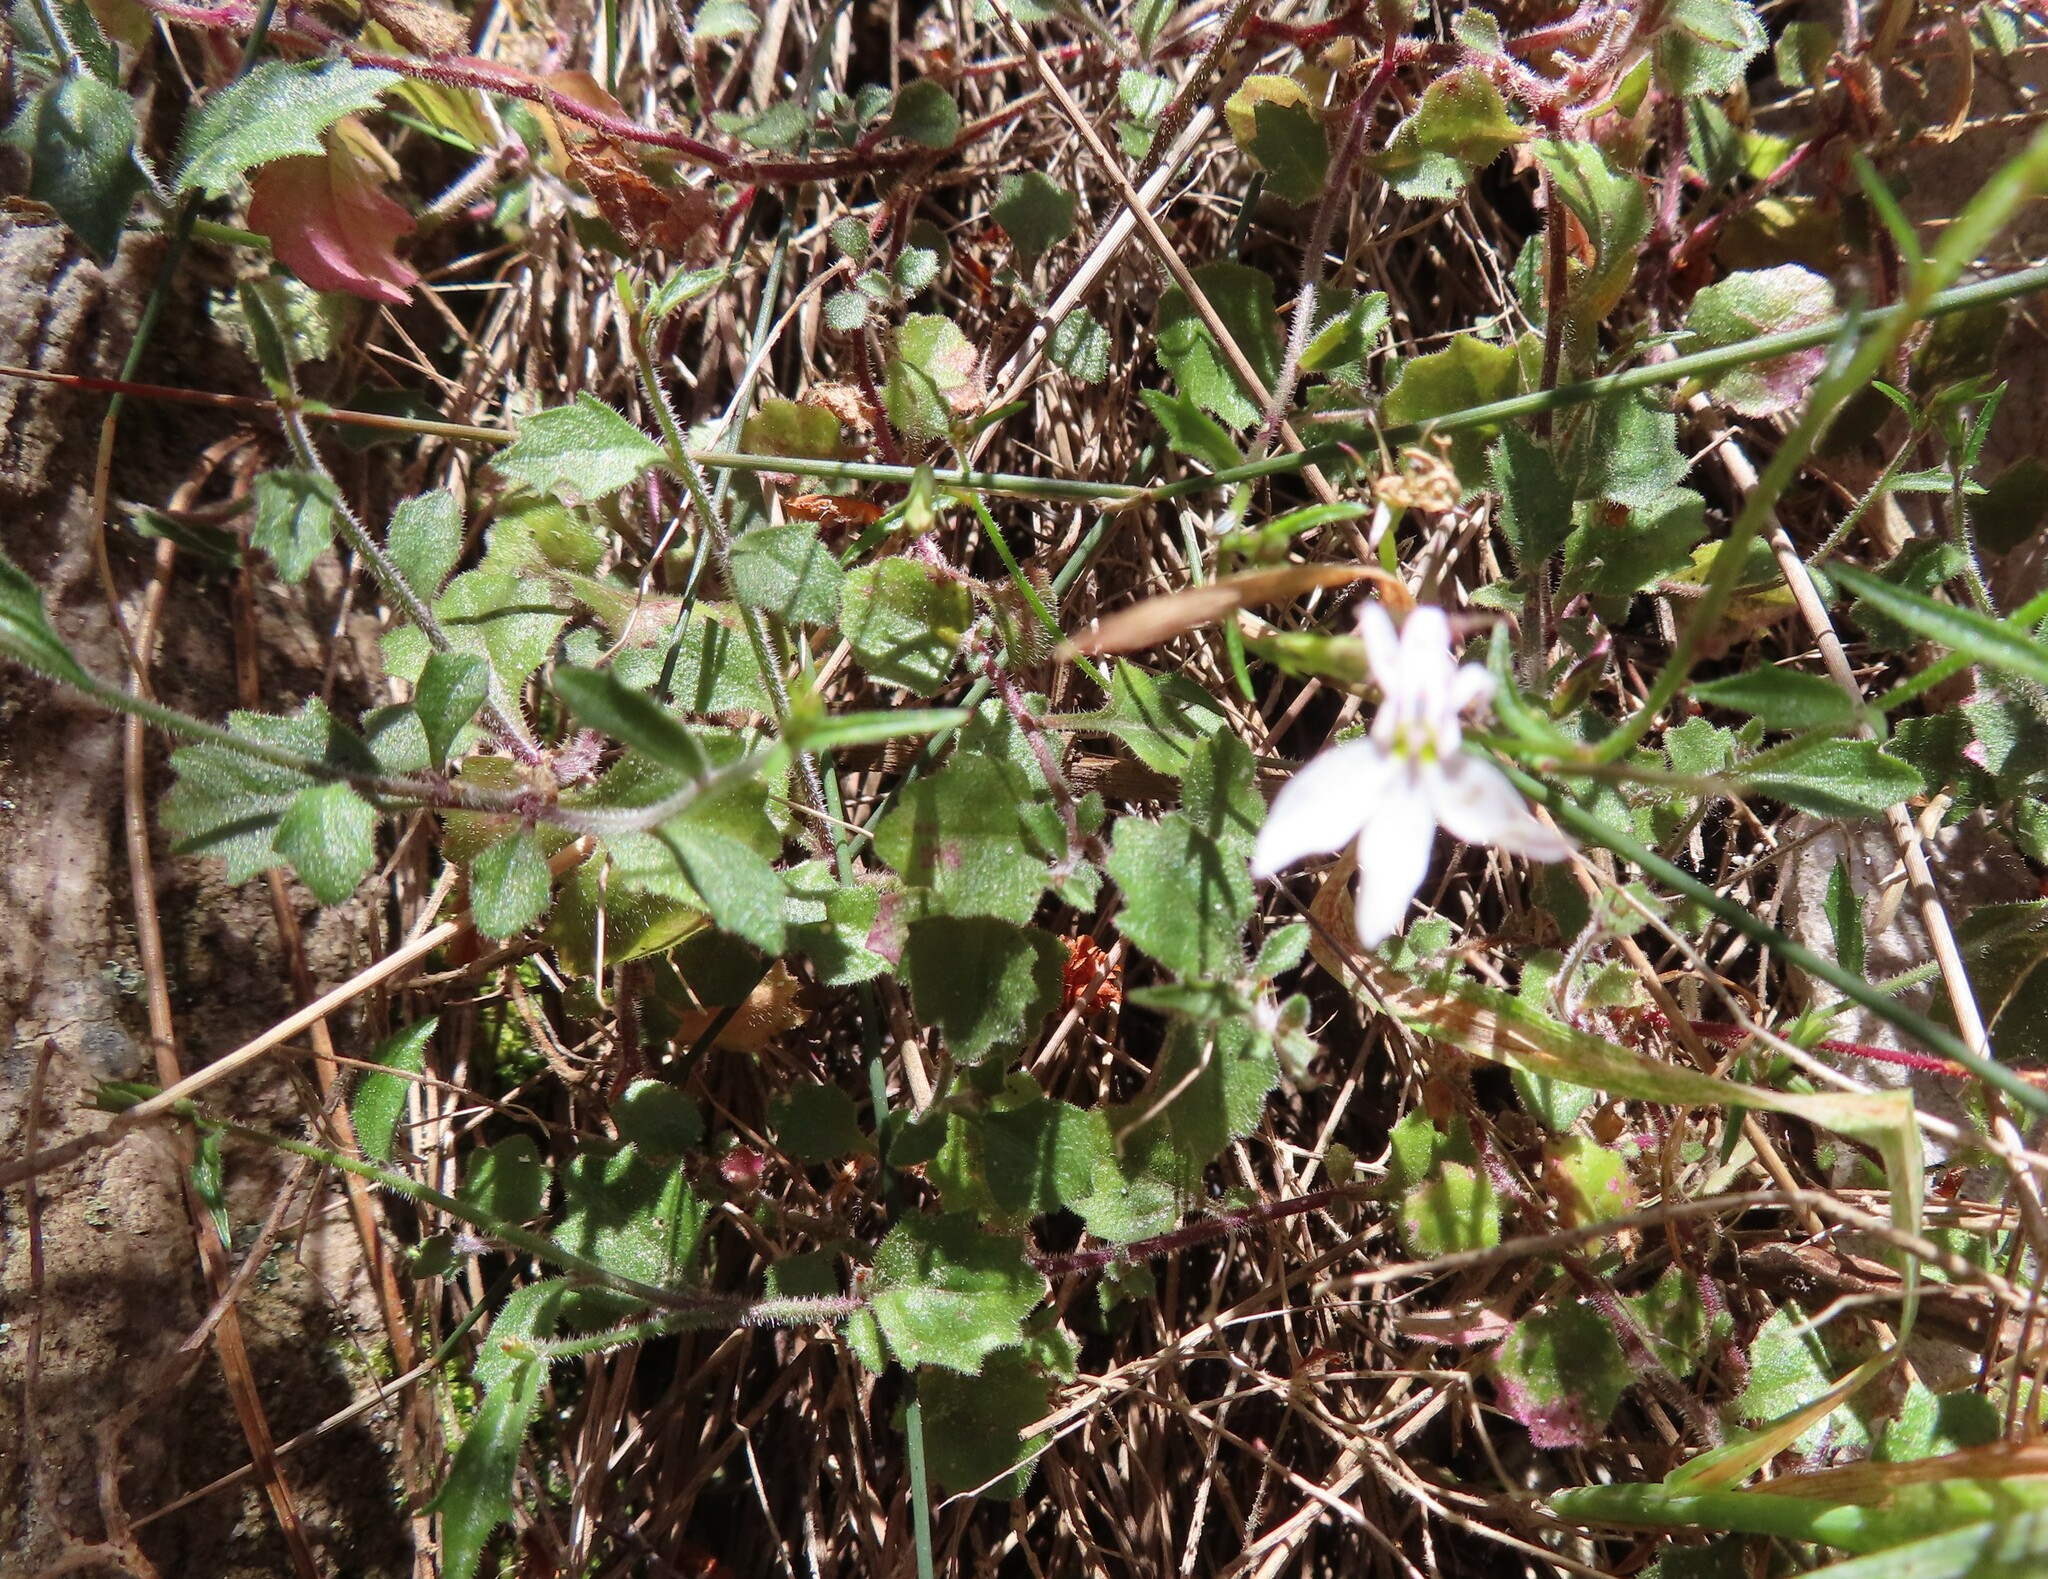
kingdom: Plantae
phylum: Tracheophyta
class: Magnoliopsida
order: Asterales
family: Campanulaceae
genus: Lobelia
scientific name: Lobelia pubescens
